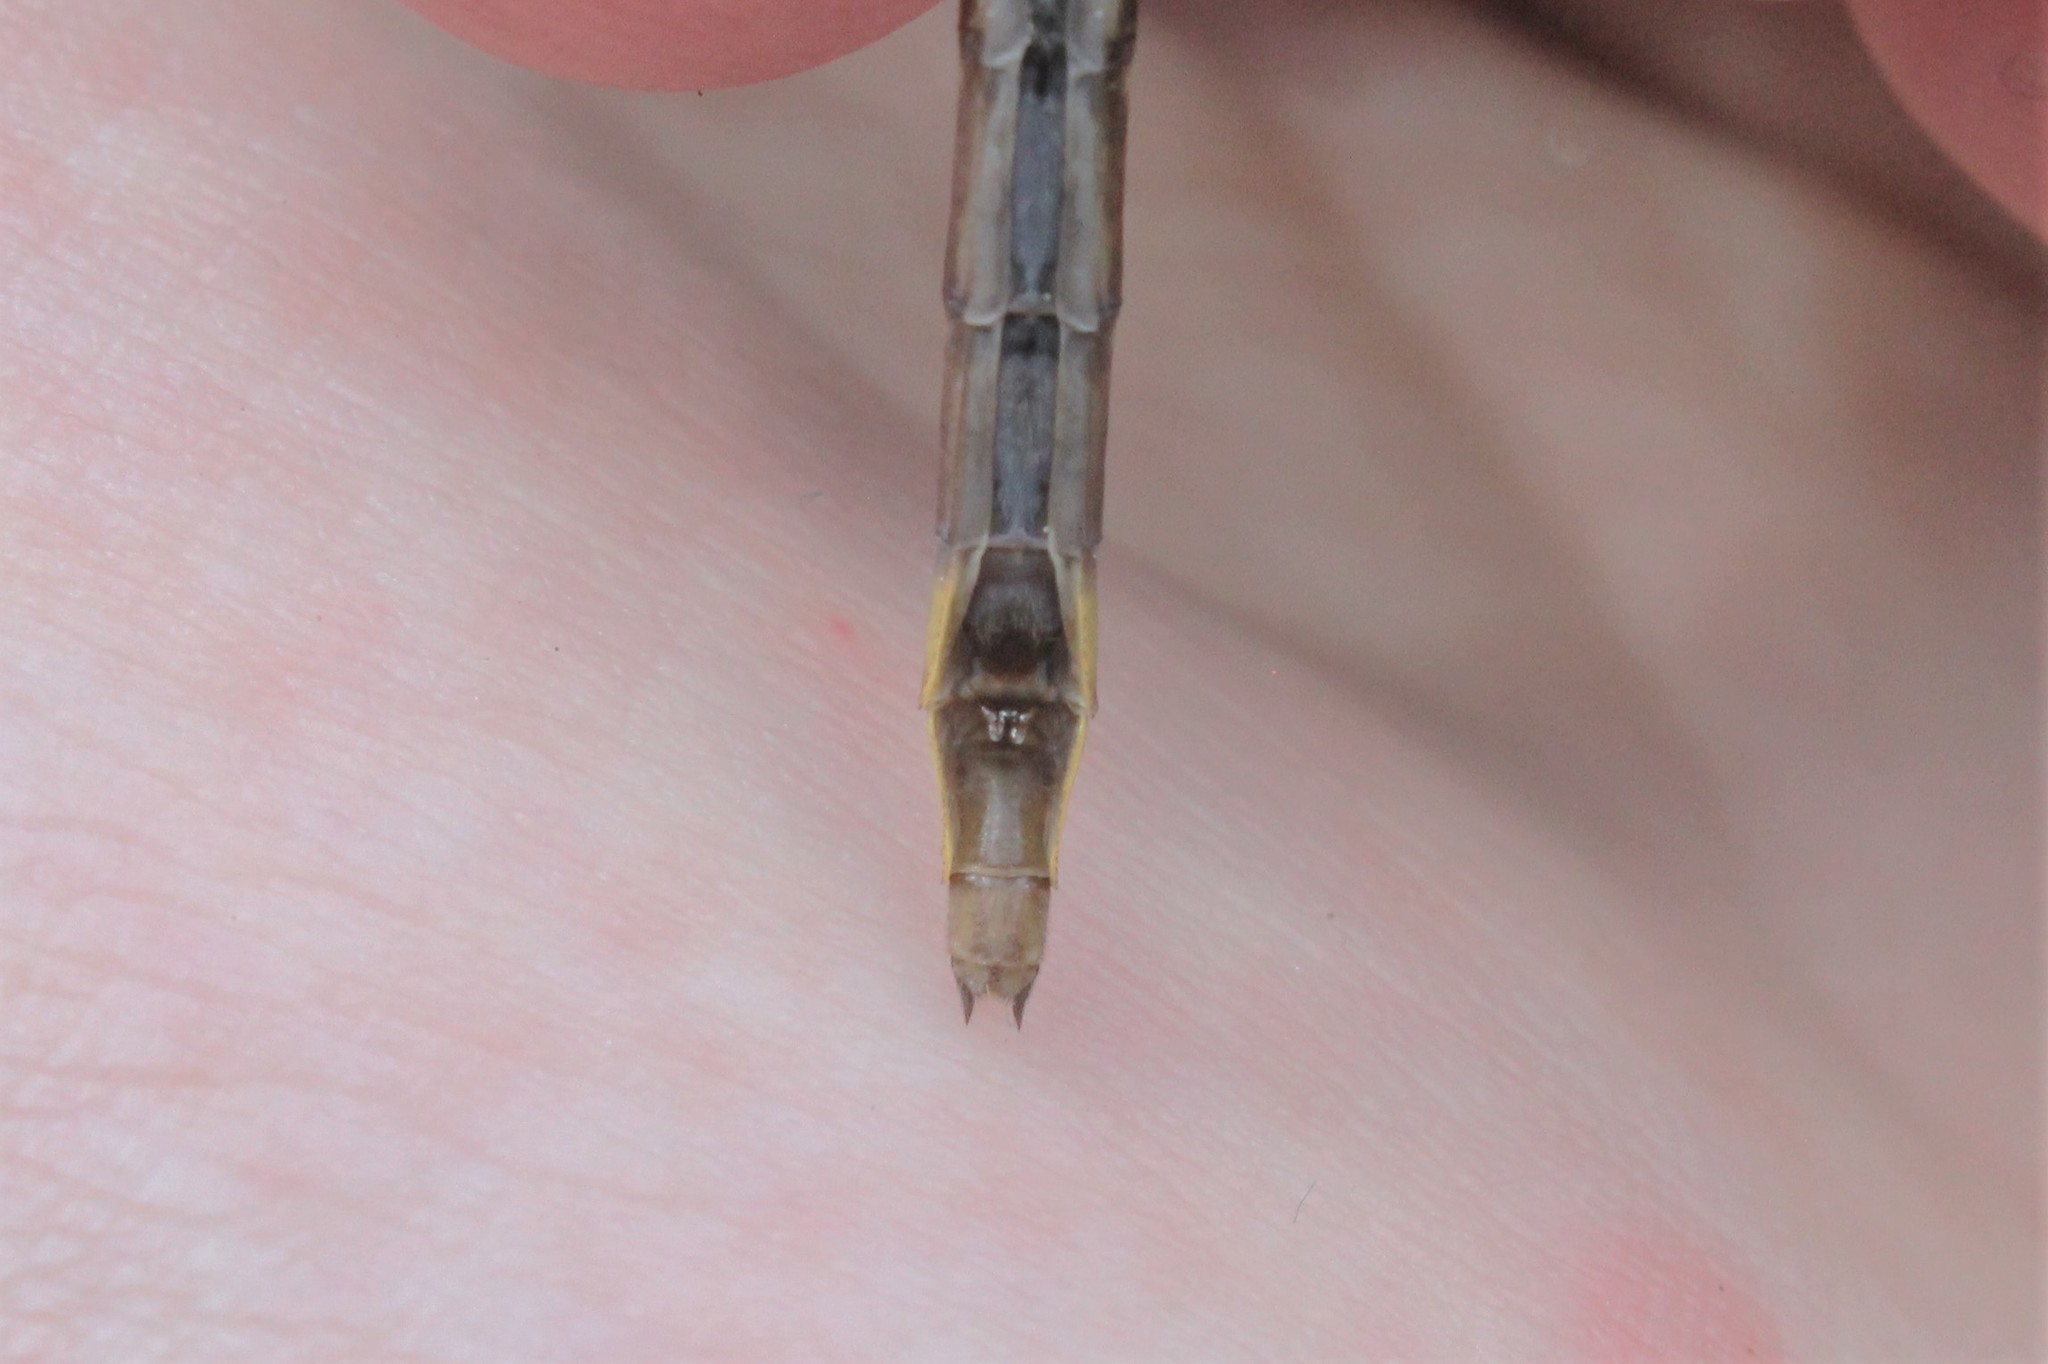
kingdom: Animalia
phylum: Arthropoda
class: Insecta
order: Odonata
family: Gomphidae
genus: Phanogomphus
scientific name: Phanogomphus exilis
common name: Lancet clubtail
